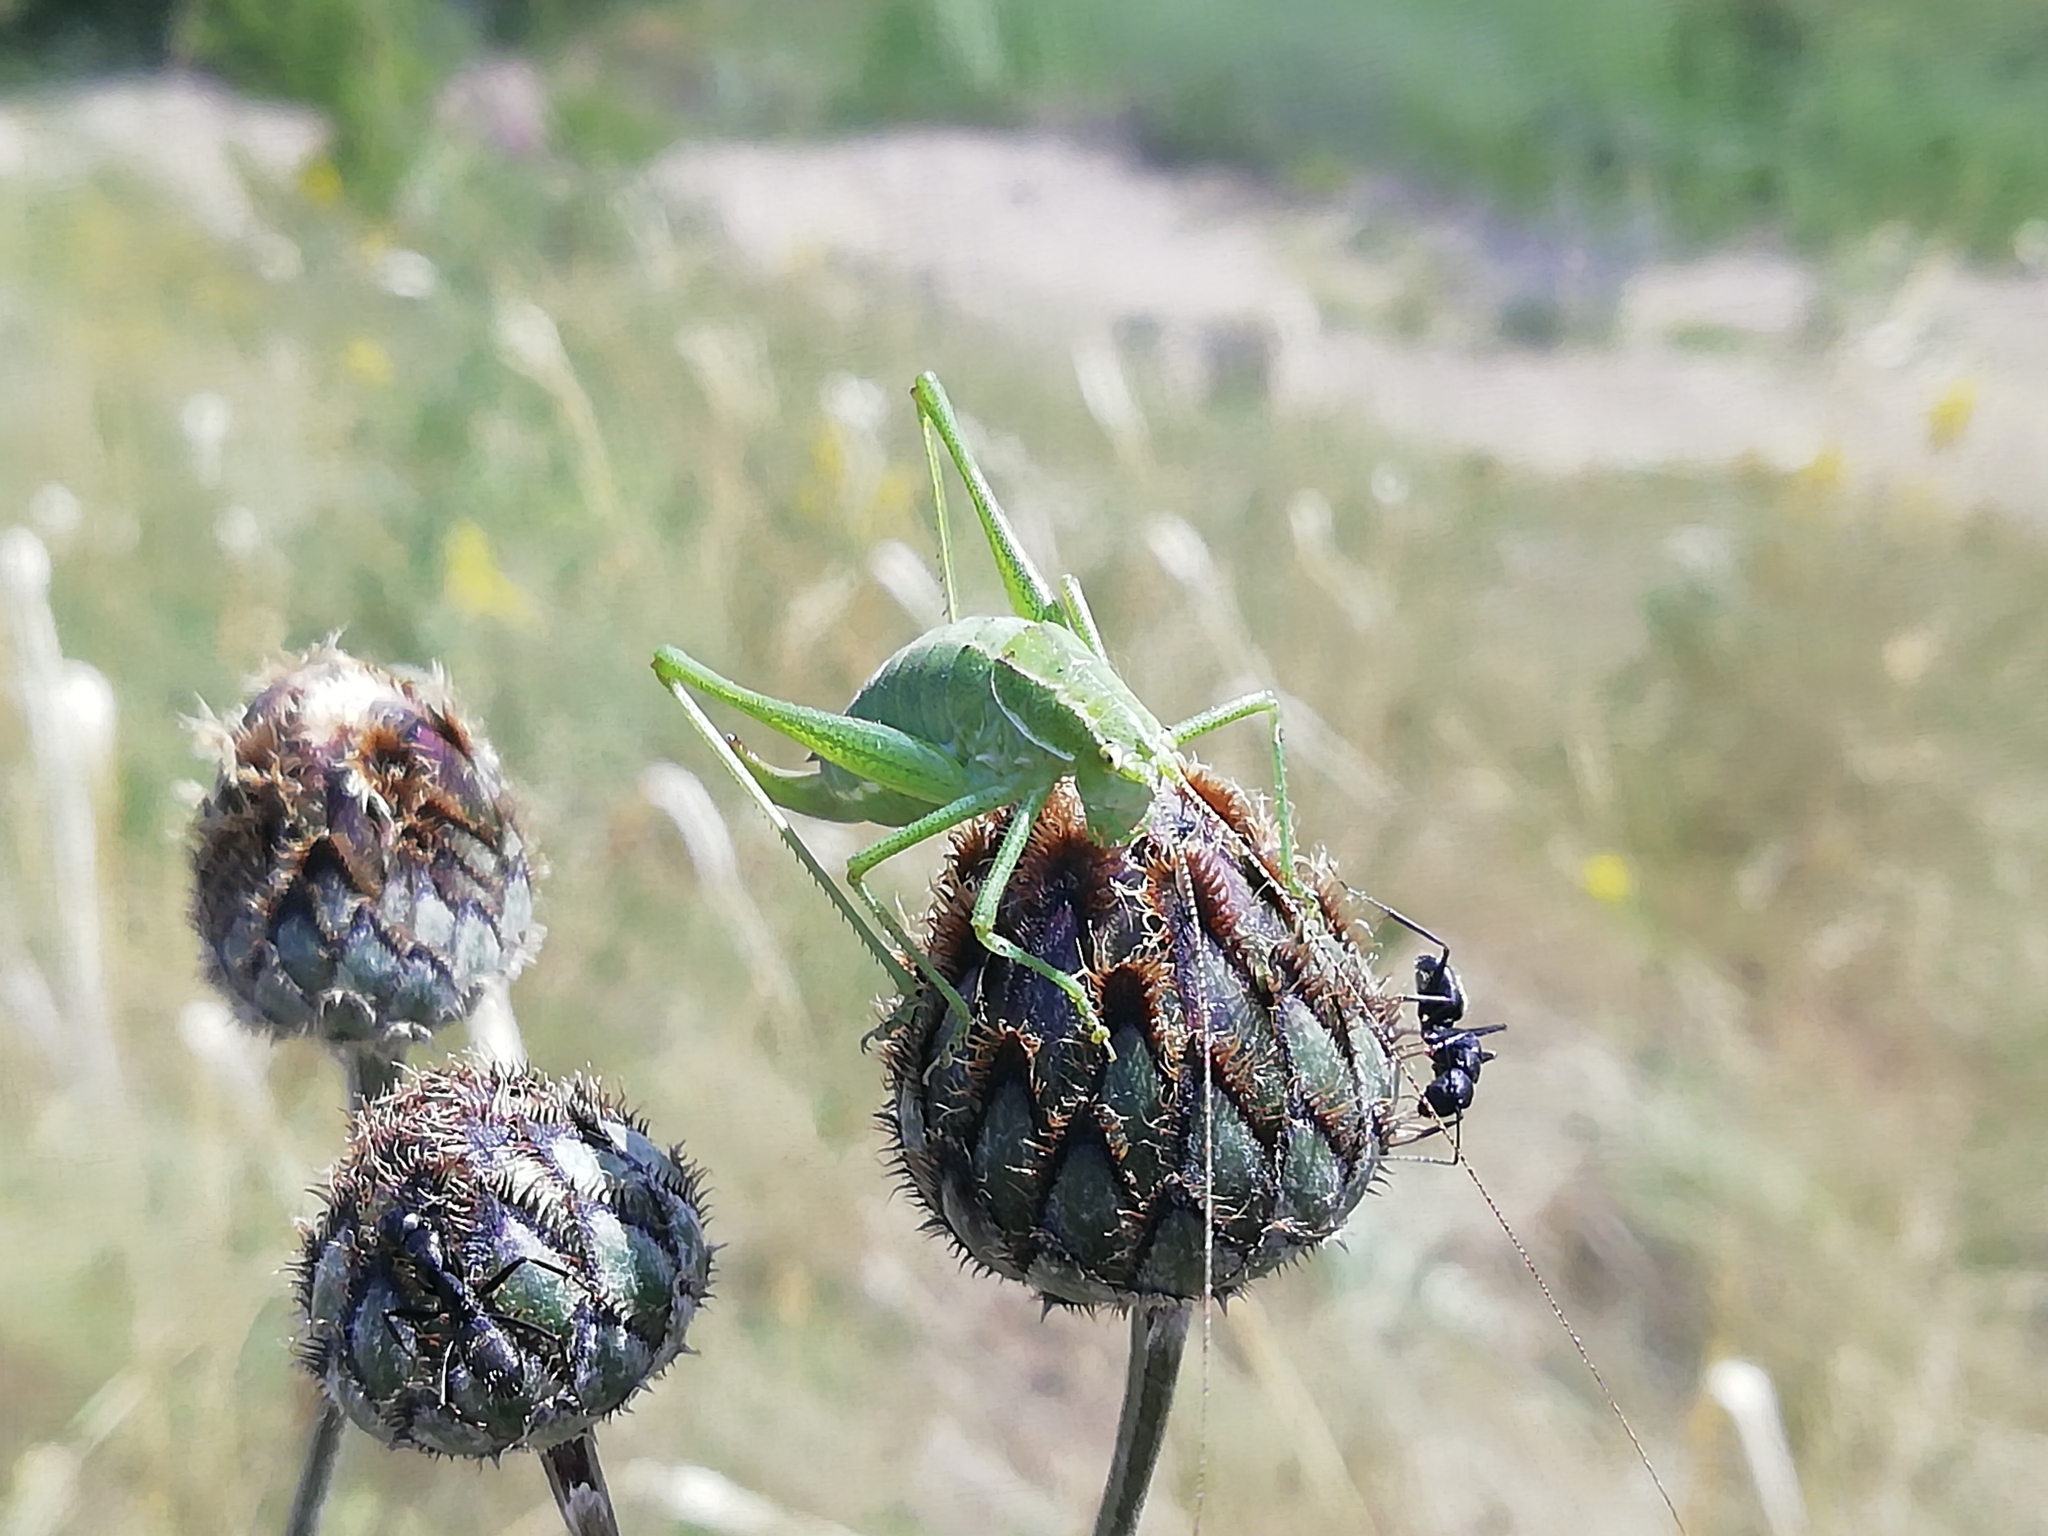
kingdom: Animalia
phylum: Arthropoda
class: Insecta
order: Orthoptera
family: Tettigoniidae
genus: Poecilimon
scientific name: Poecilimon intermedius
